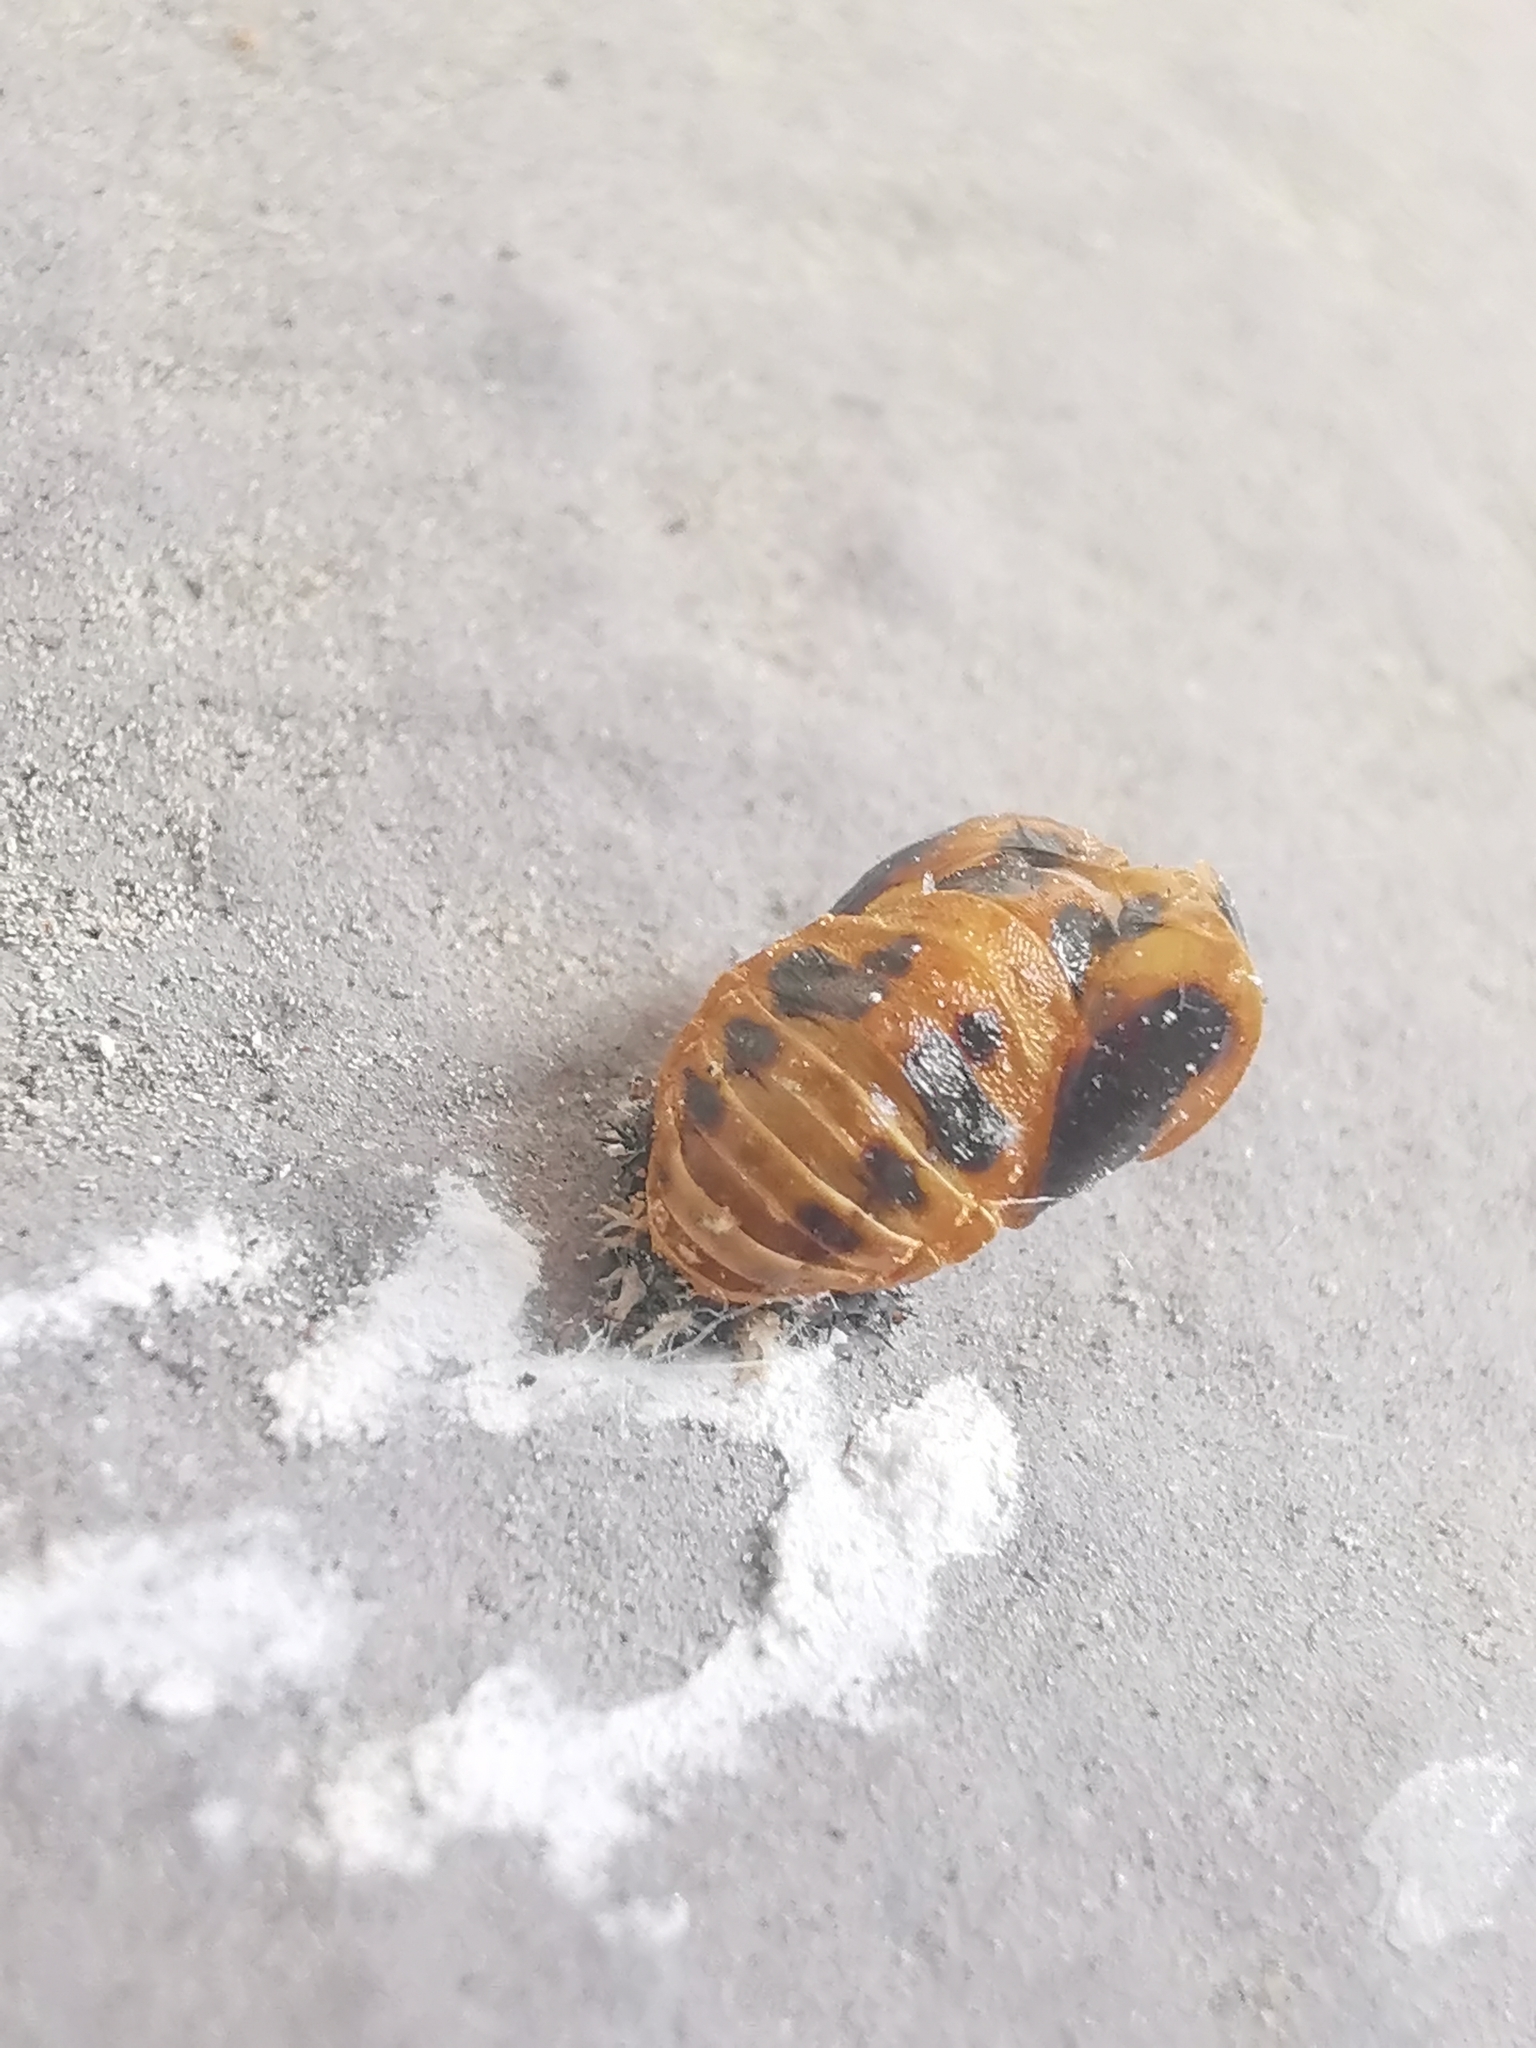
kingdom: Animalia
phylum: Arthropoda
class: Insecta
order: Coleoptera
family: Coccinellidae
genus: Harmonia
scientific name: Harmonia axyridis
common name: Harlequin ladybird
